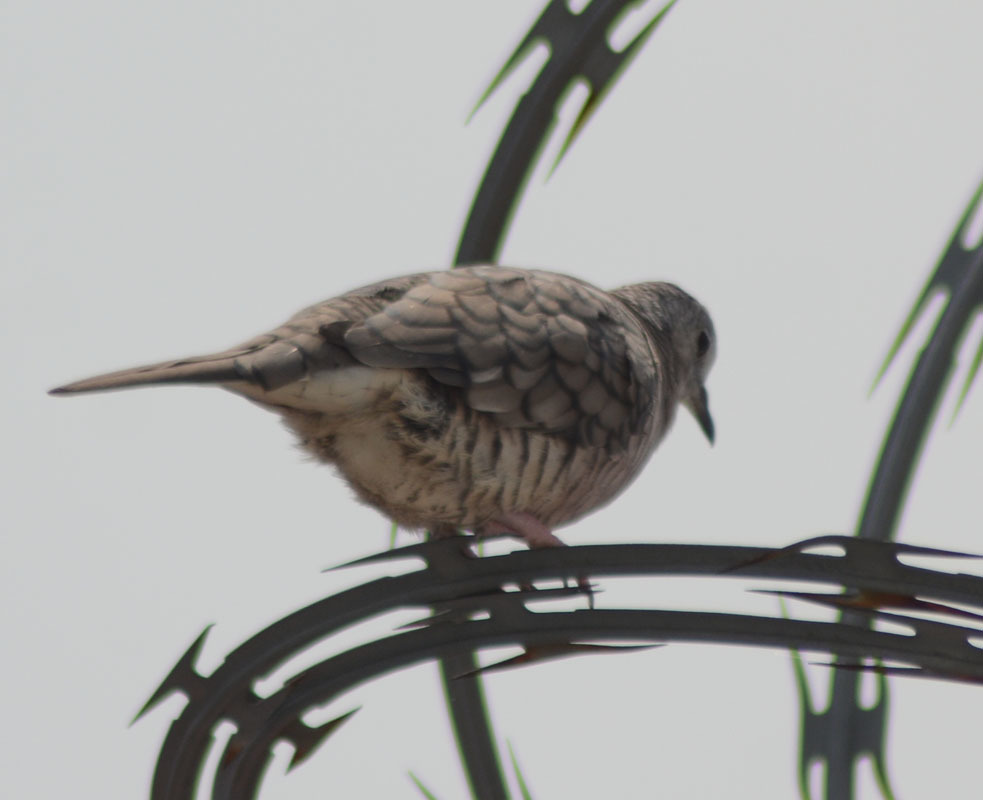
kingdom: Animalia
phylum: Chordata
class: Aves
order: Columbiformes
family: Columbidae
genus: Columbina
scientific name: Columbina inca
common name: Inca dove
